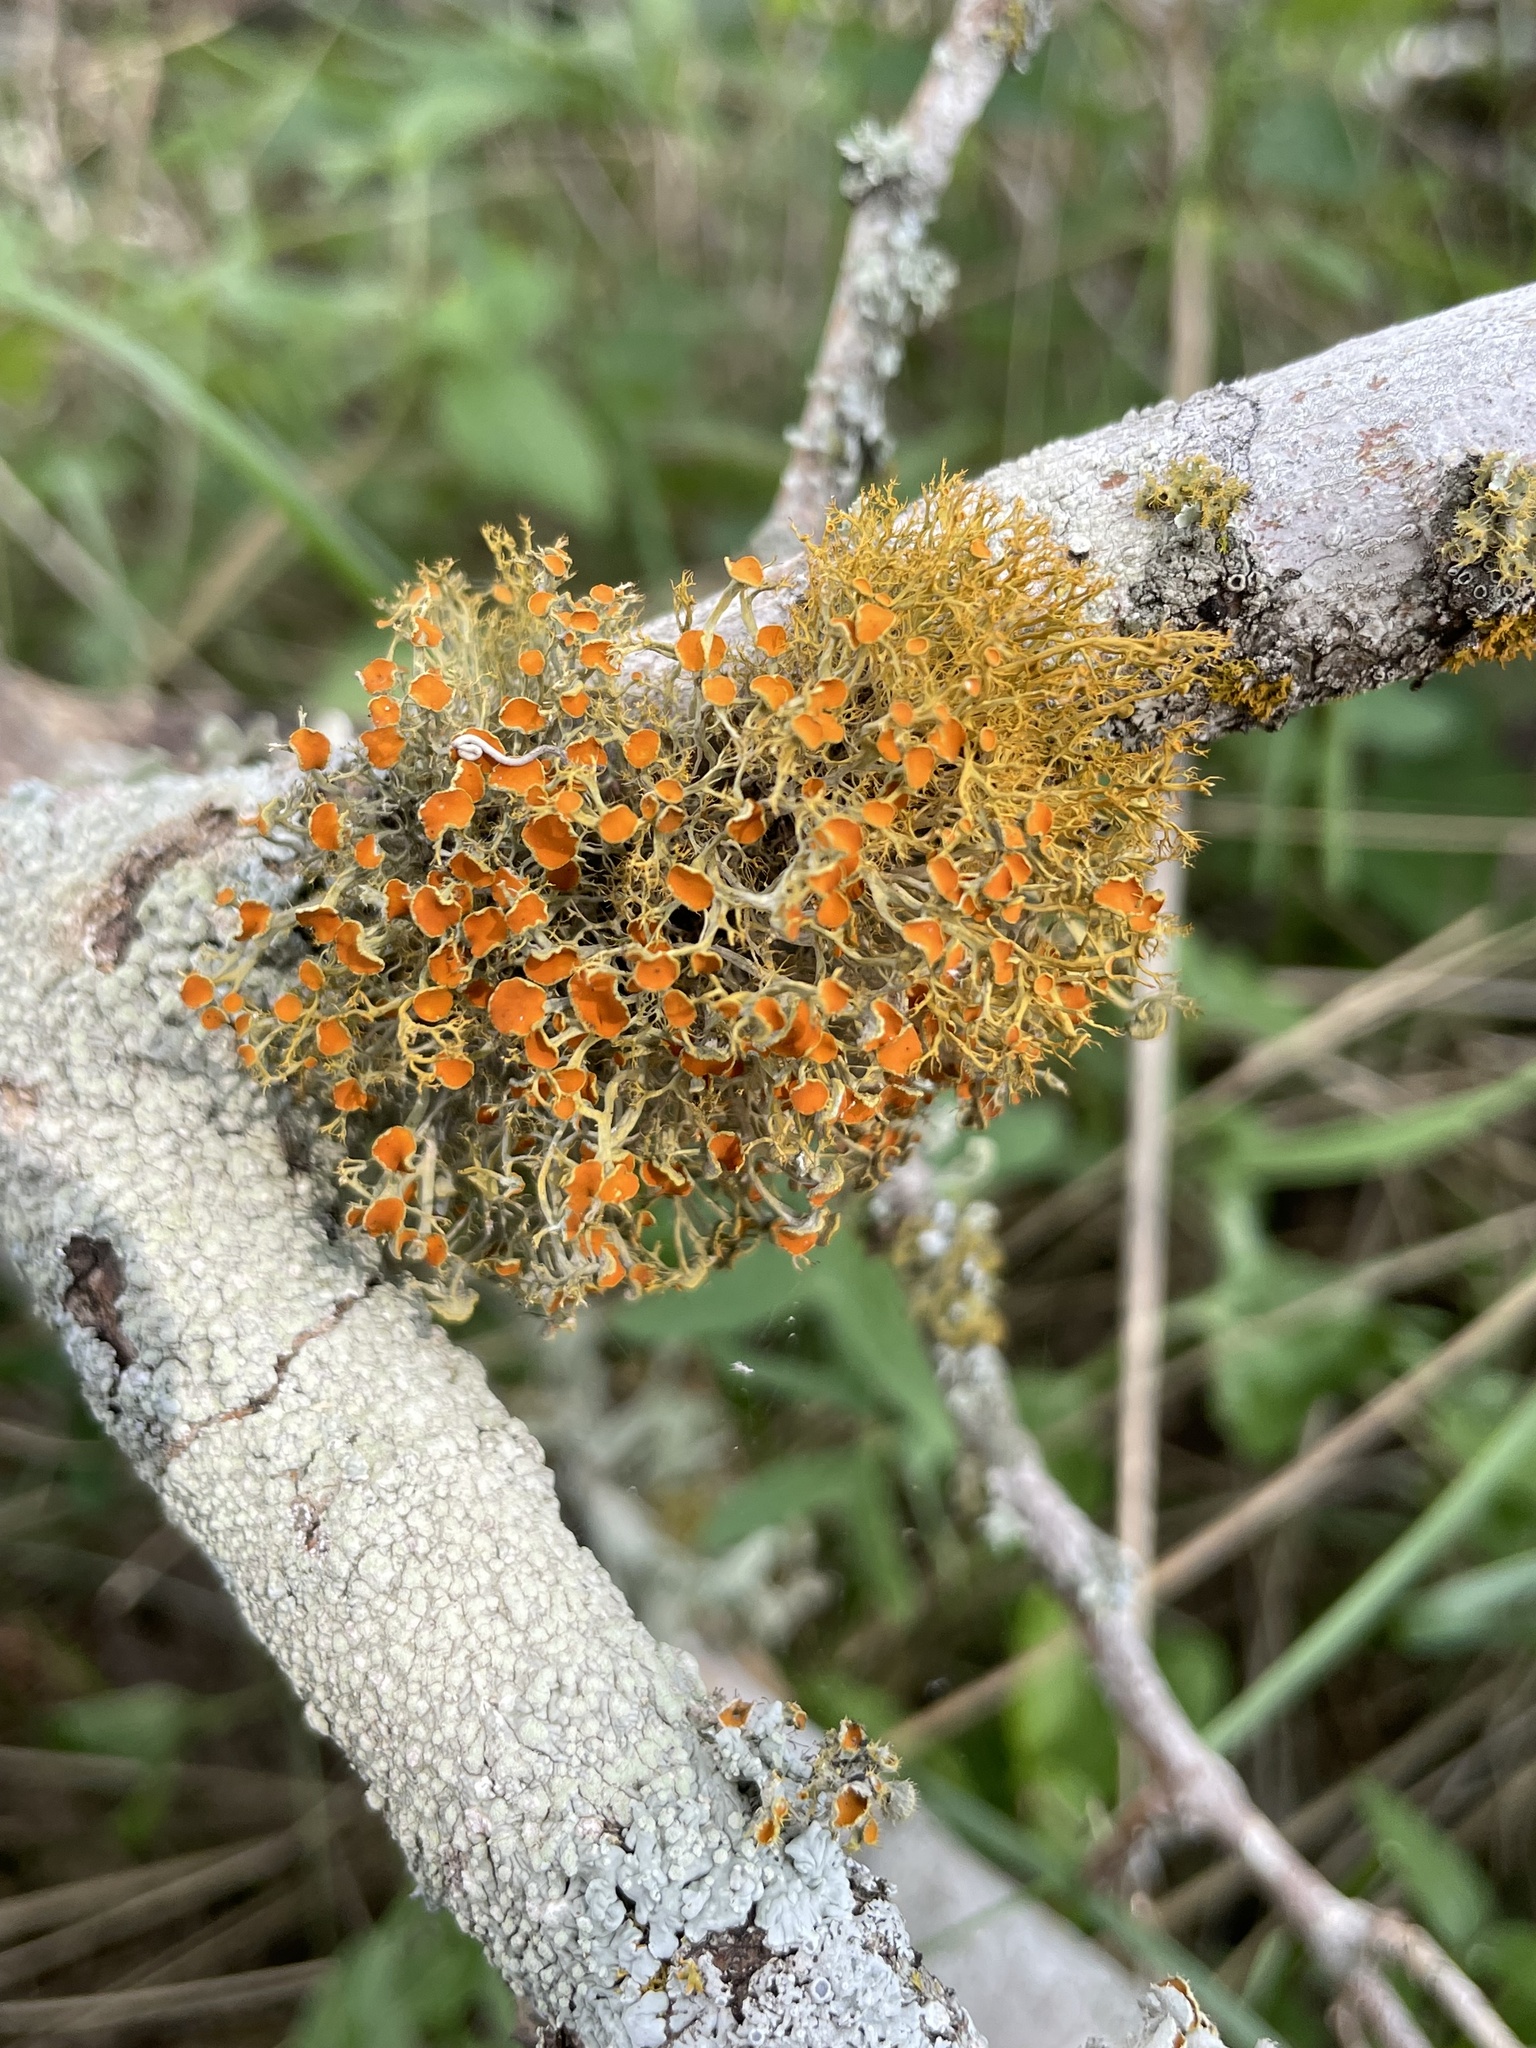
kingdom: Fungi
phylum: Ascomycota
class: Lecanoromycetes
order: Teloschistales
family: Teloschistaceae
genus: Teloschistes
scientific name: Teloschistes exilis
